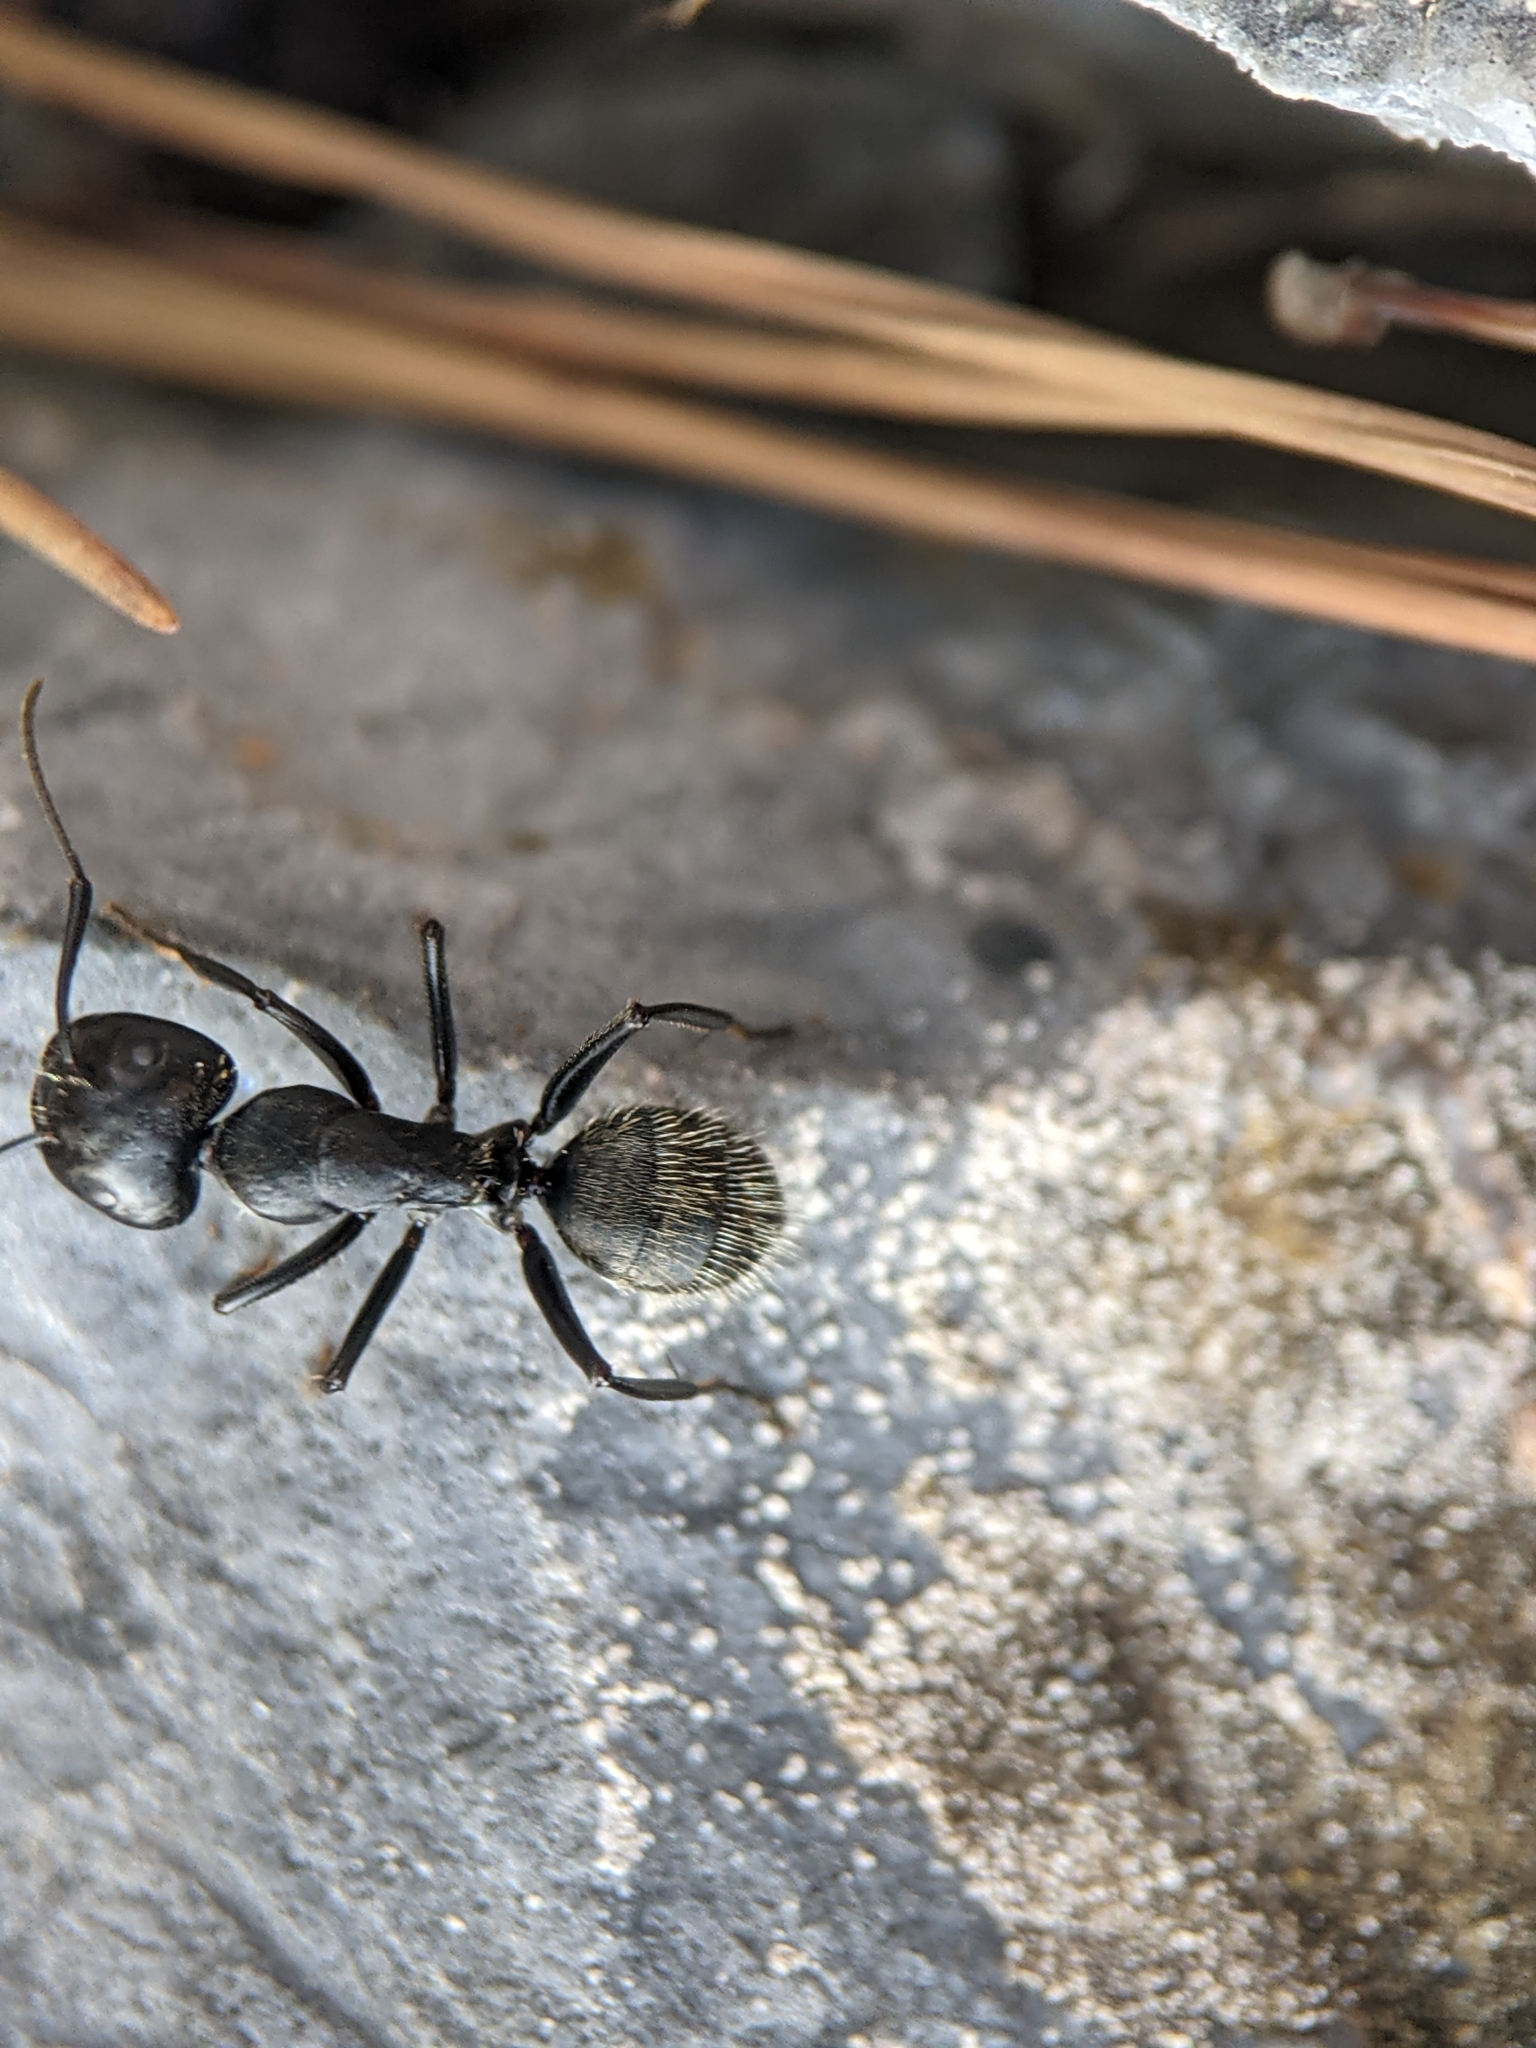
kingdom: Animalia
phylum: Arthropoda
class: Insecta
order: Hymenoptera
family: Formicidae
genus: Camponotus
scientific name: Camponotus vagus
